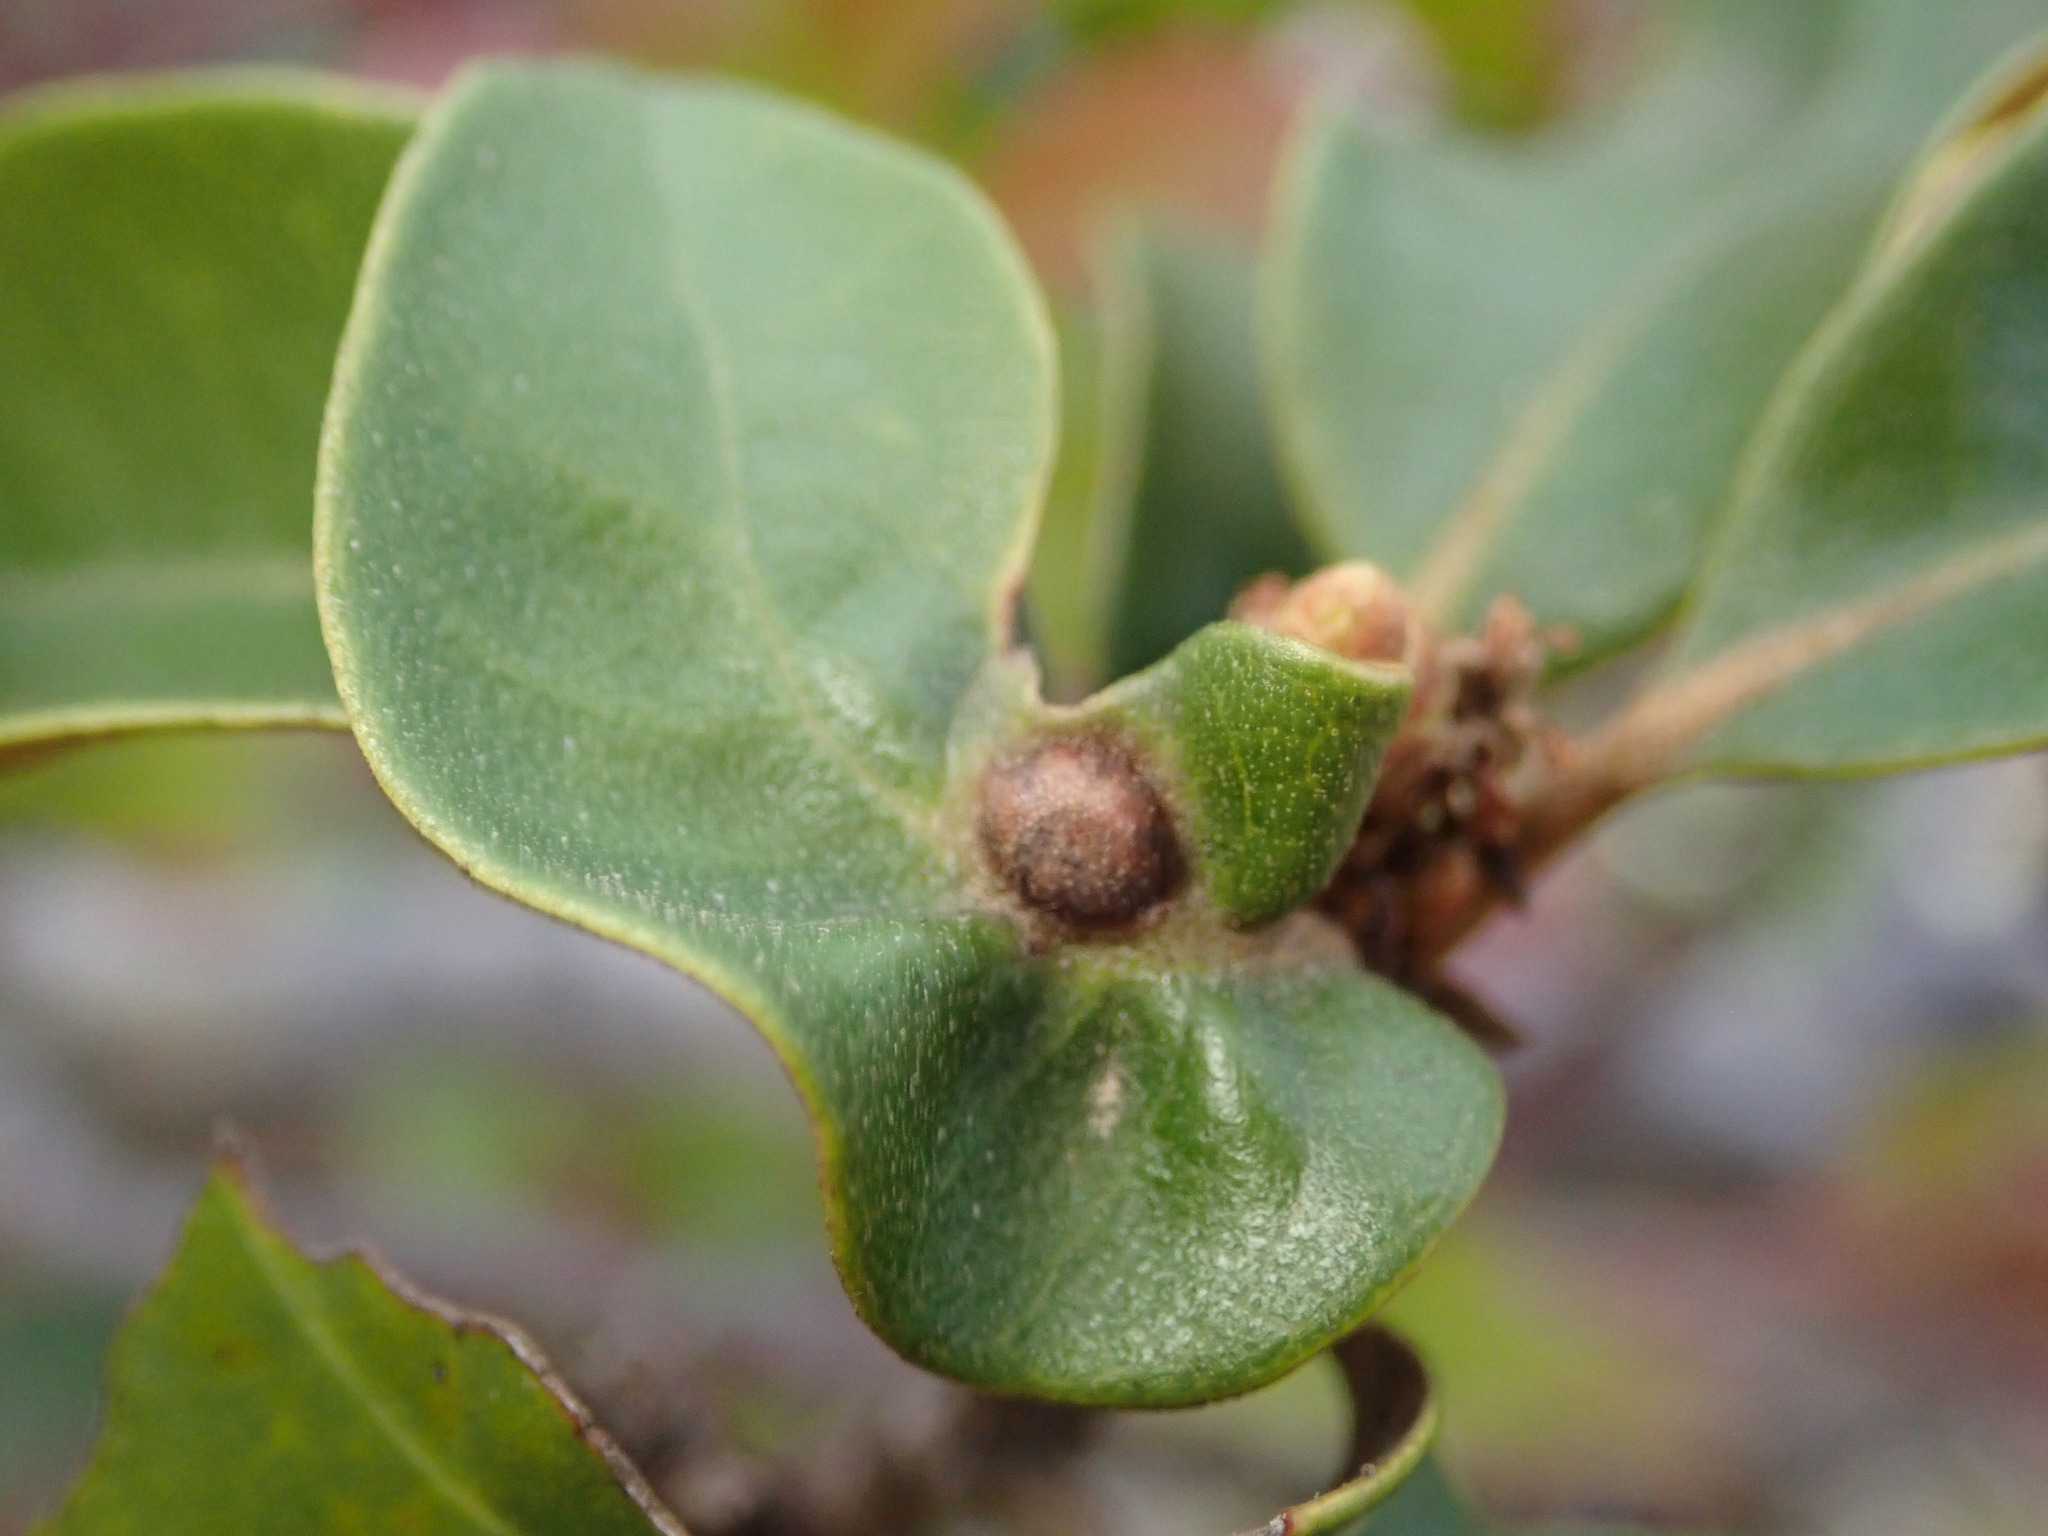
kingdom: Animalia
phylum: Arthropoda
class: Insecta
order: Hymenoptera
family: Cynipidae
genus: Dryocosmus
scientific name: Dryocosmus juliae
